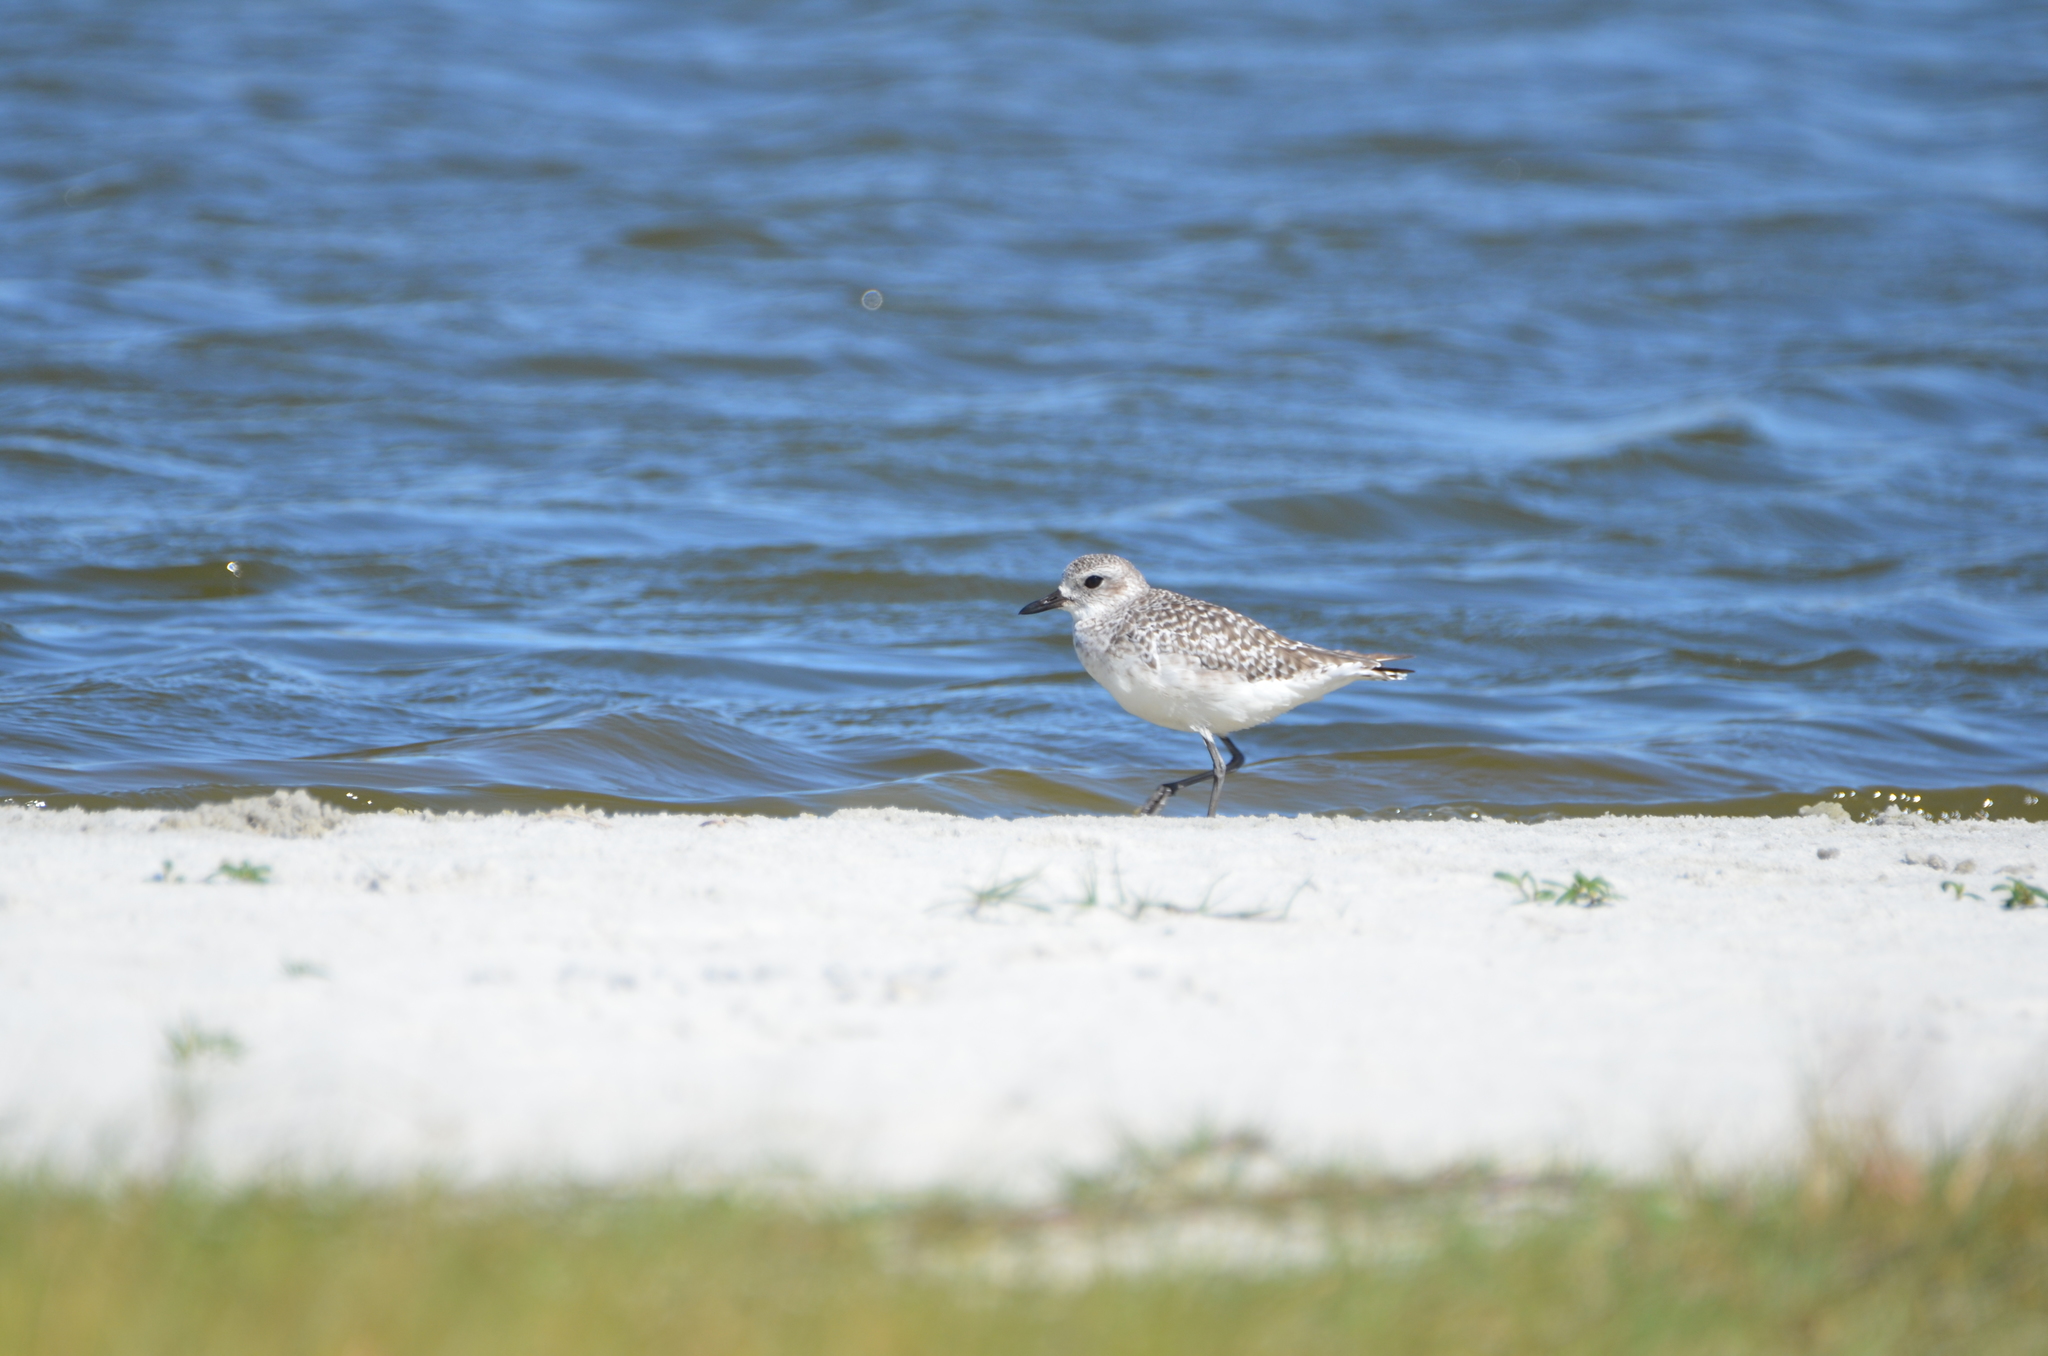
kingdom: Animalia
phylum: Chordata
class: Aves
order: Charadriiformes
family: Charadriidae
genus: Pluvialis
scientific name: Pluvialis squatarola
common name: Grey plover
